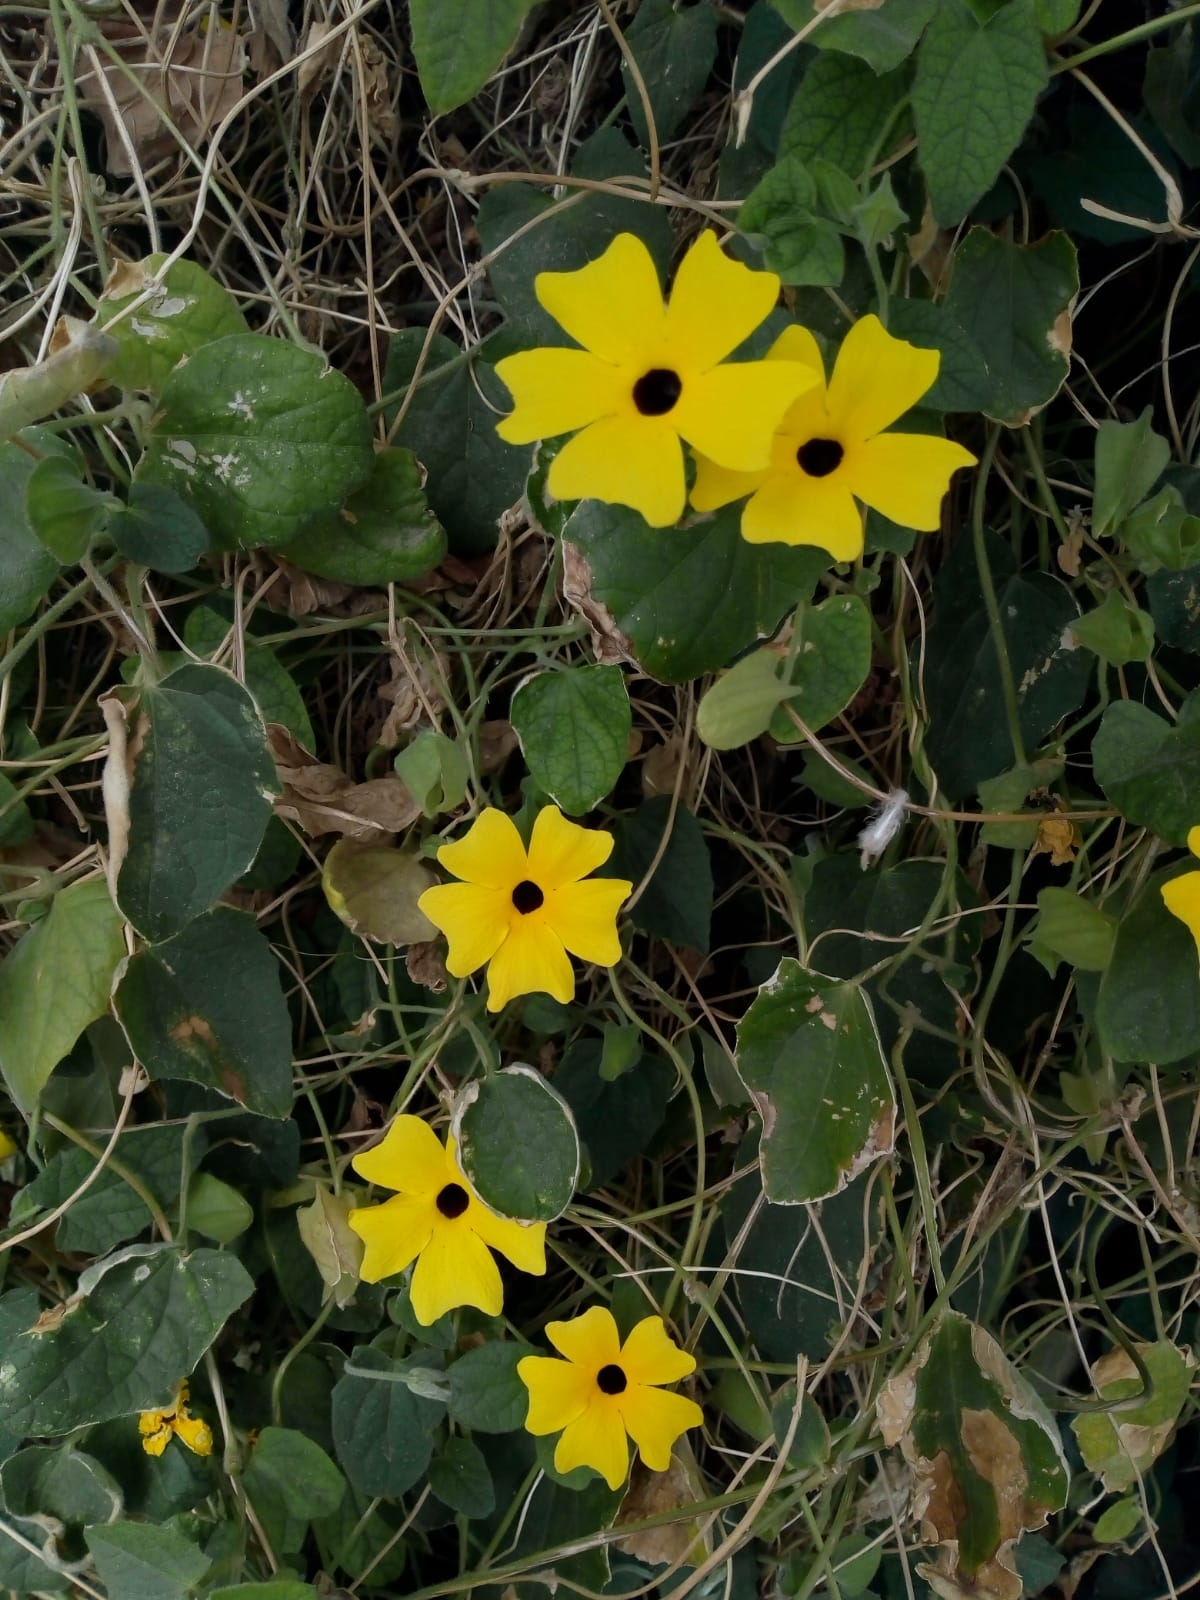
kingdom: Plantae
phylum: Tracheophyta
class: Magnoliopsida
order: Lamiales
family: Acanthaceae
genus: Thunbergia
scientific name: Thunbergia alata
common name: Blackeyed susan vine
